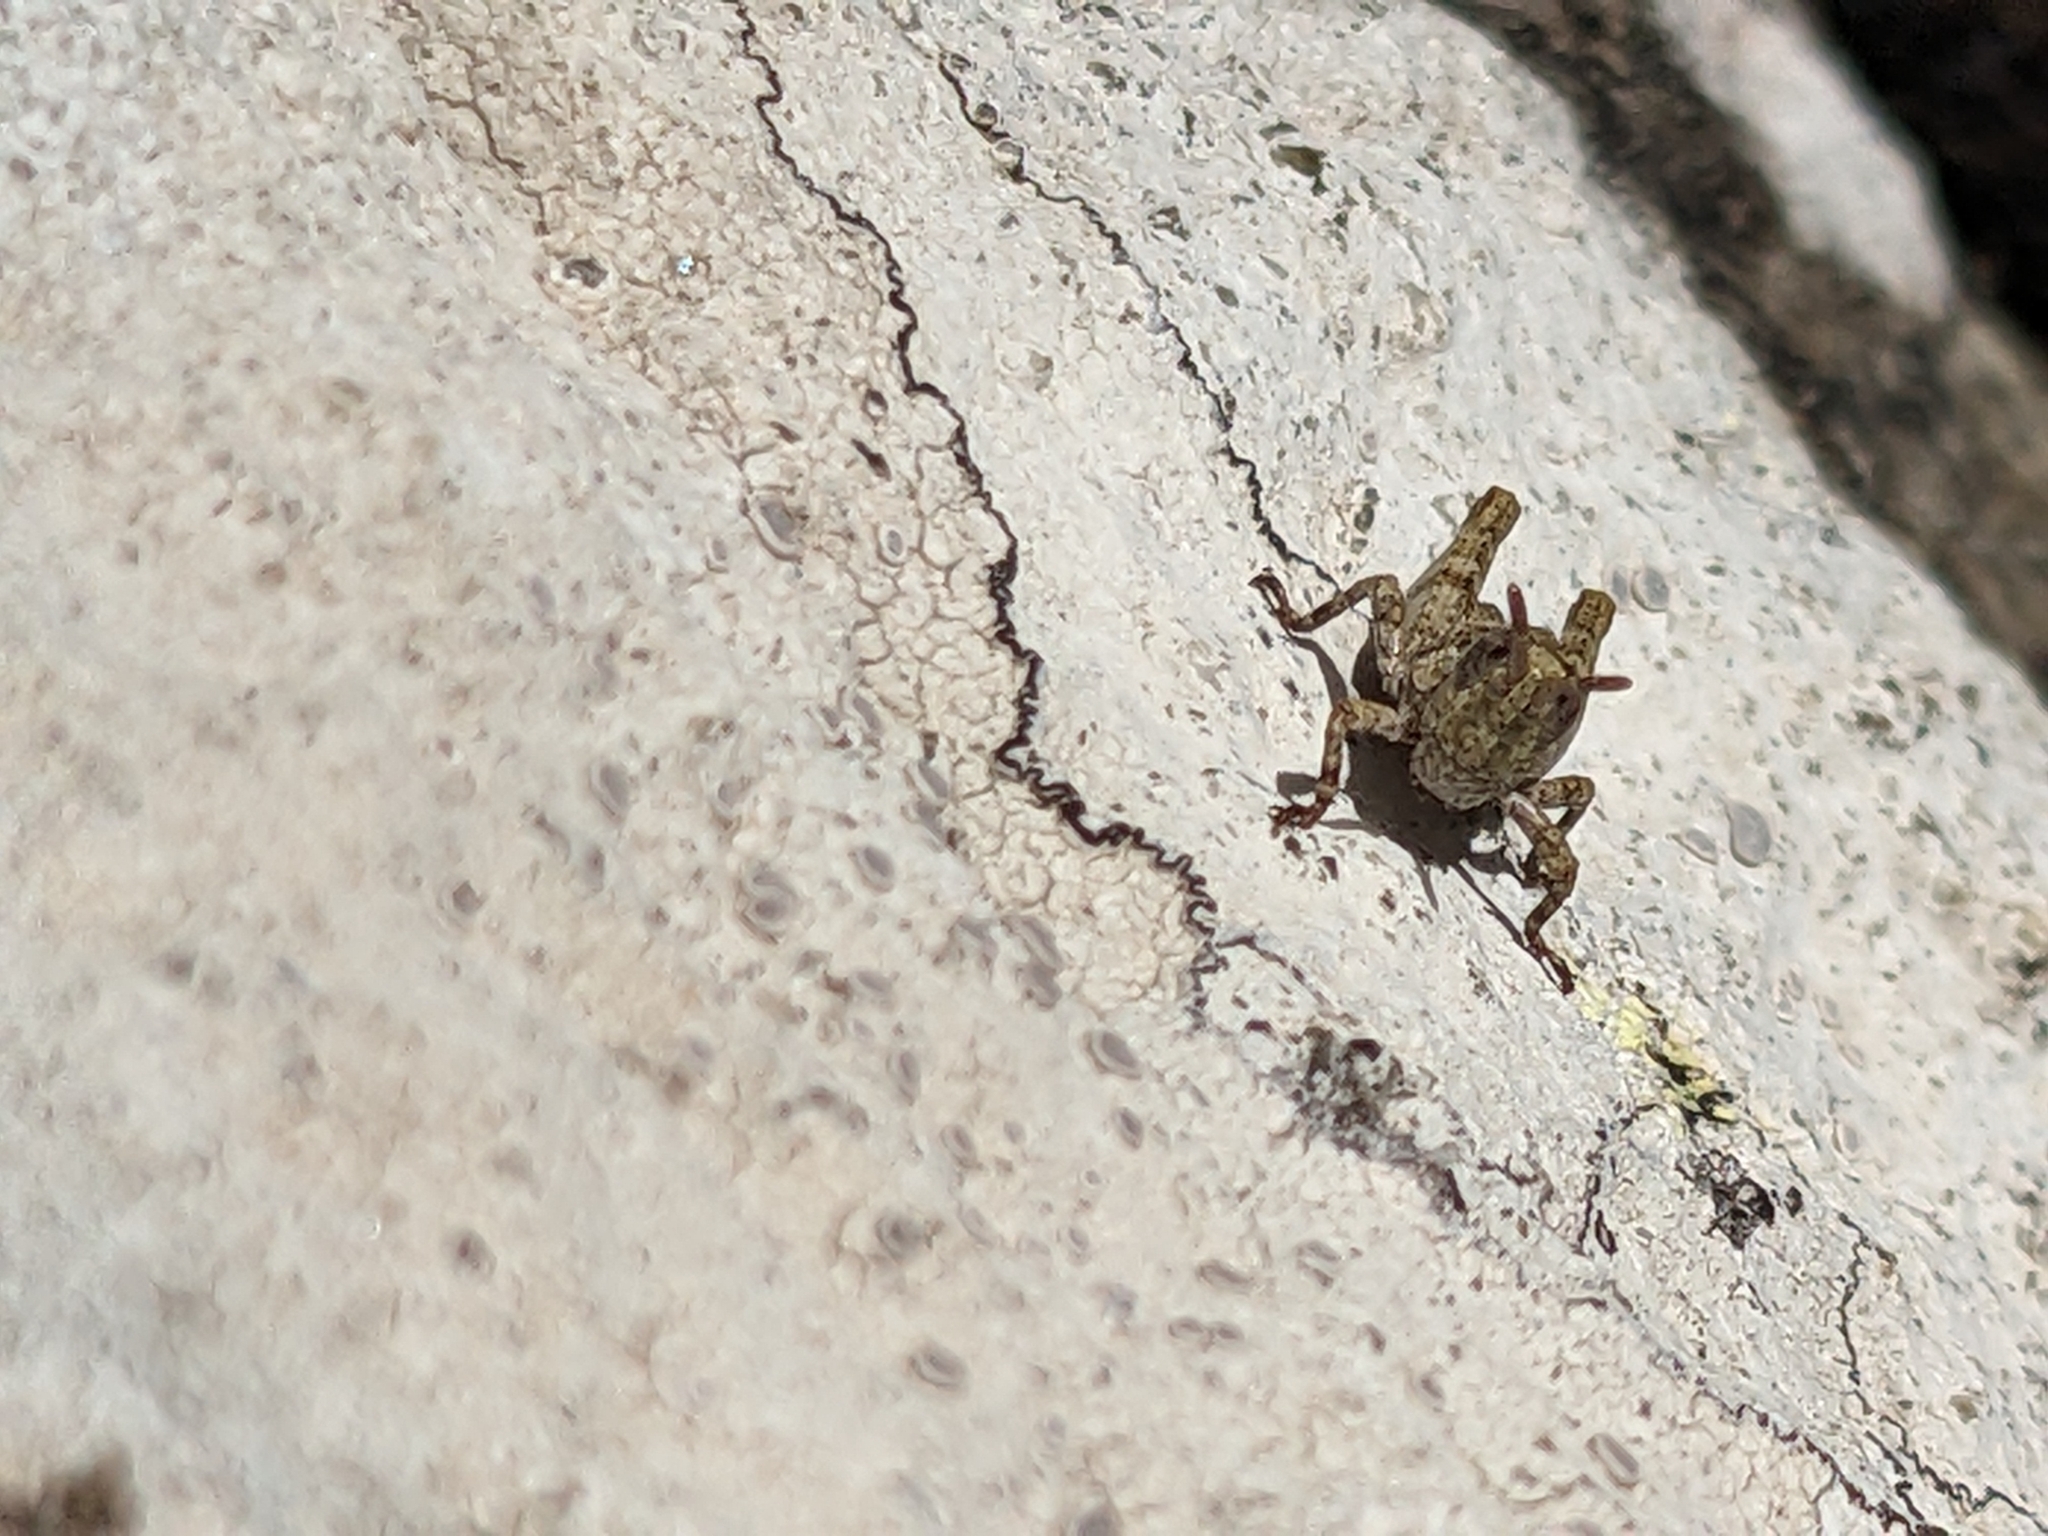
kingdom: Animalia
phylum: Arthropoda
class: Insecta
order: Orthoptera
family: Acrididae
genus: Tasmaniacris
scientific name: Tasmaniacris tasmaniensis
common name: Tasmanian grasshopper
